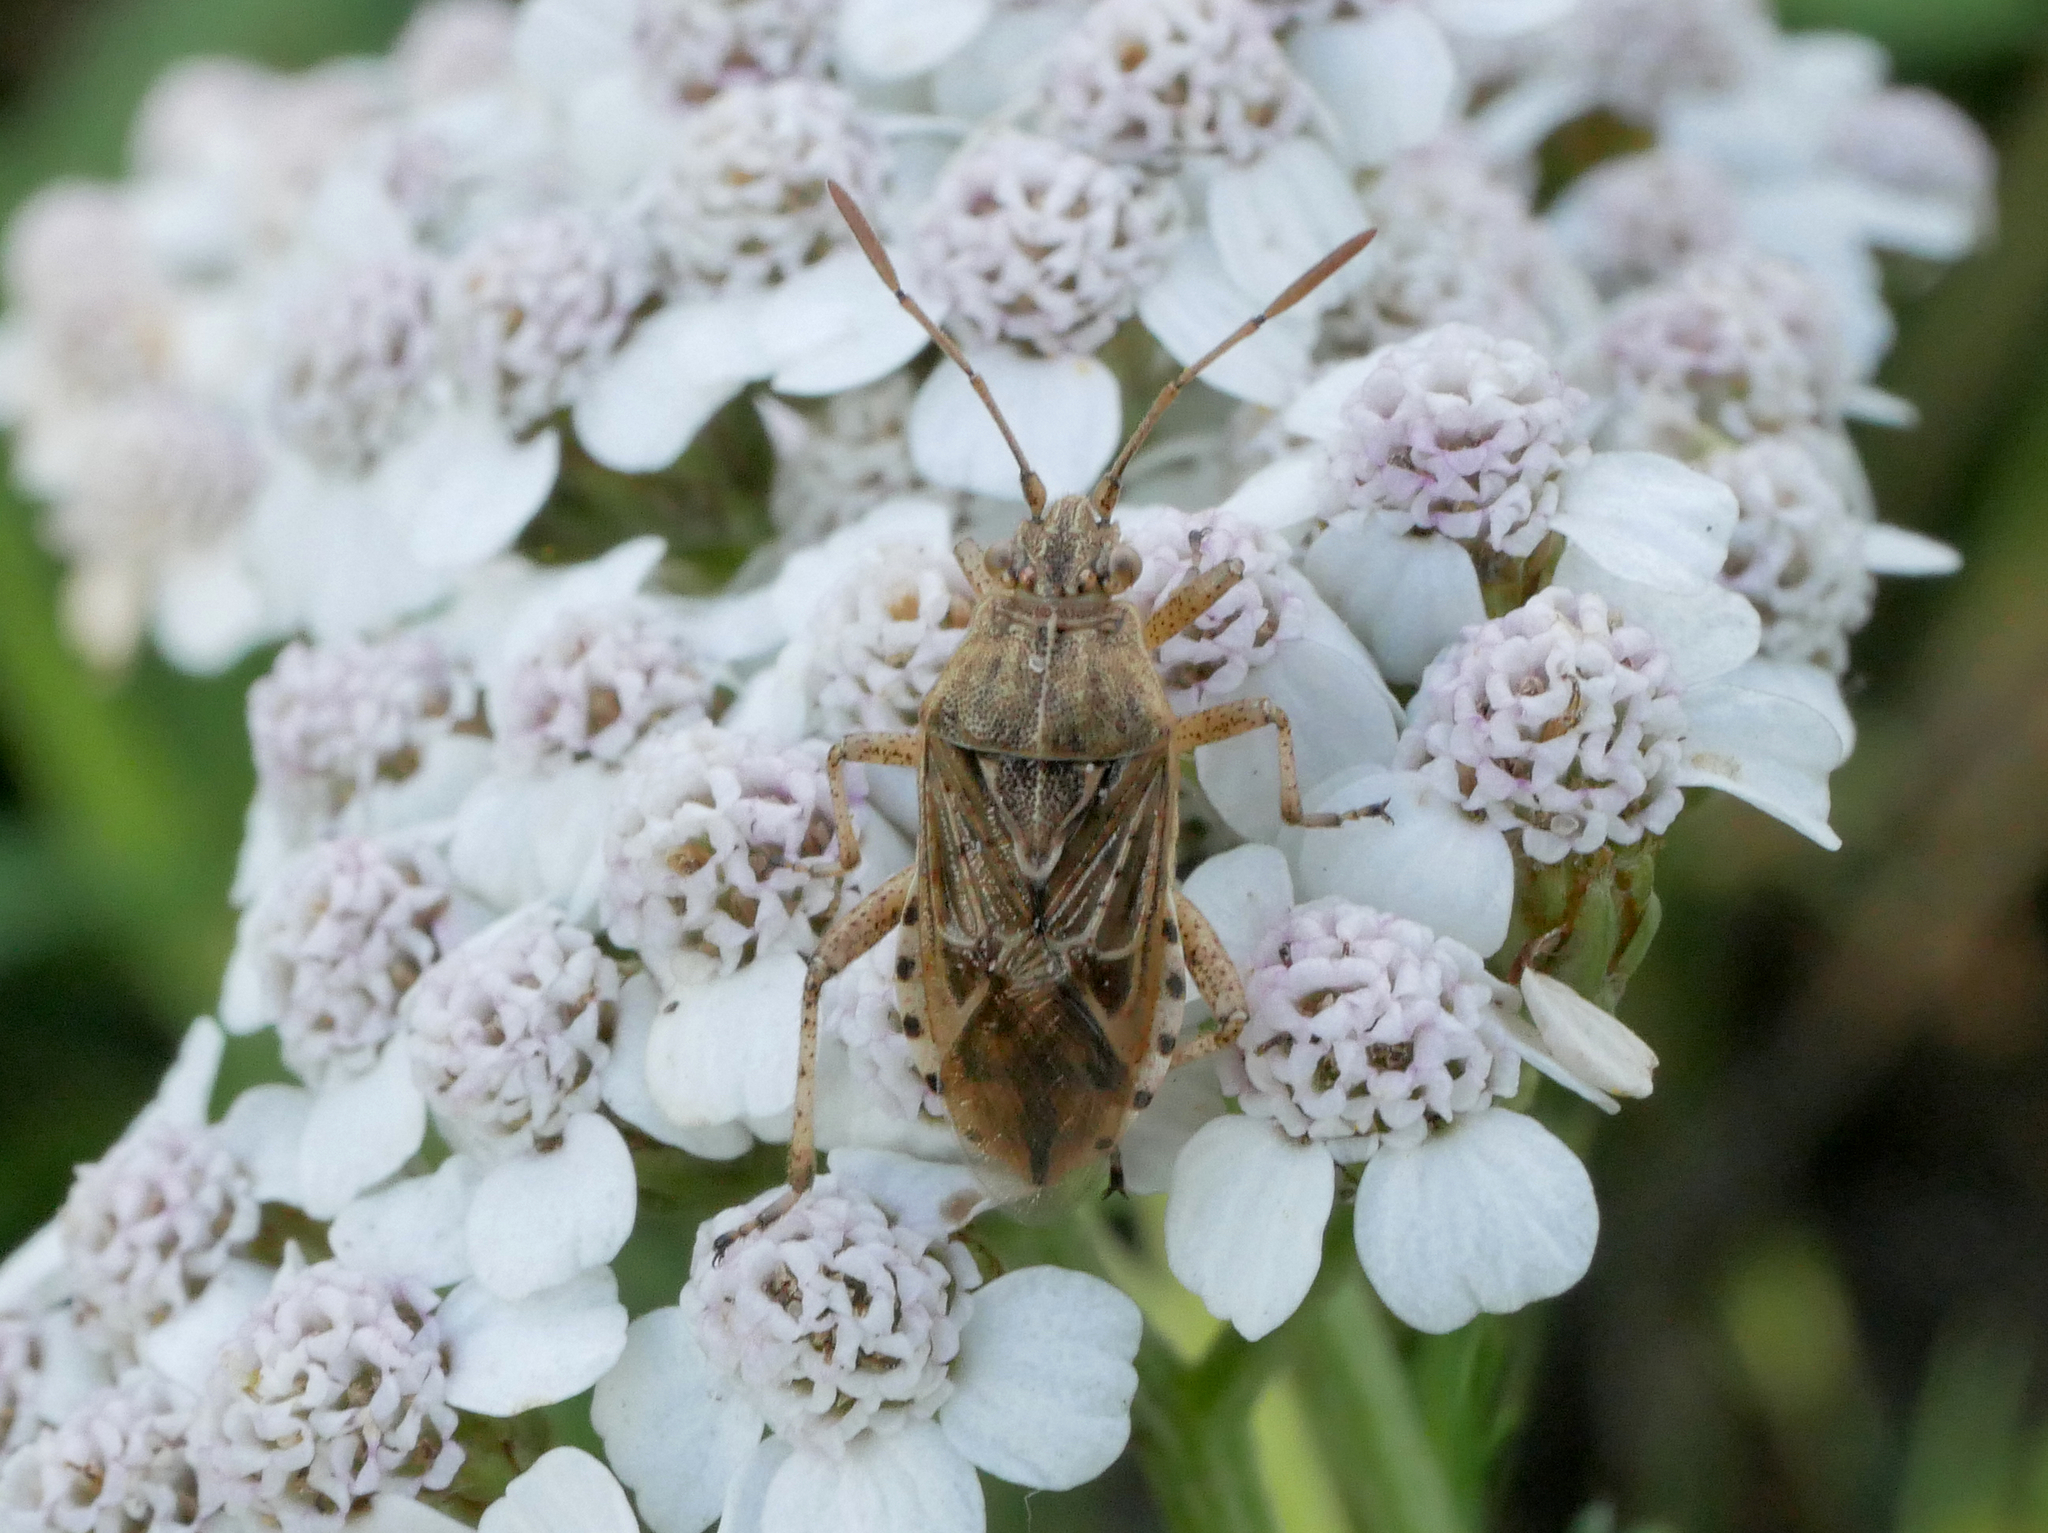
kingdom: Animalia
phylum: Arthropoda
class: Insecta
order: Hemiptera
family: Rhopalidae
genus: Stictopleurus
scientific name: Stictopleurus
